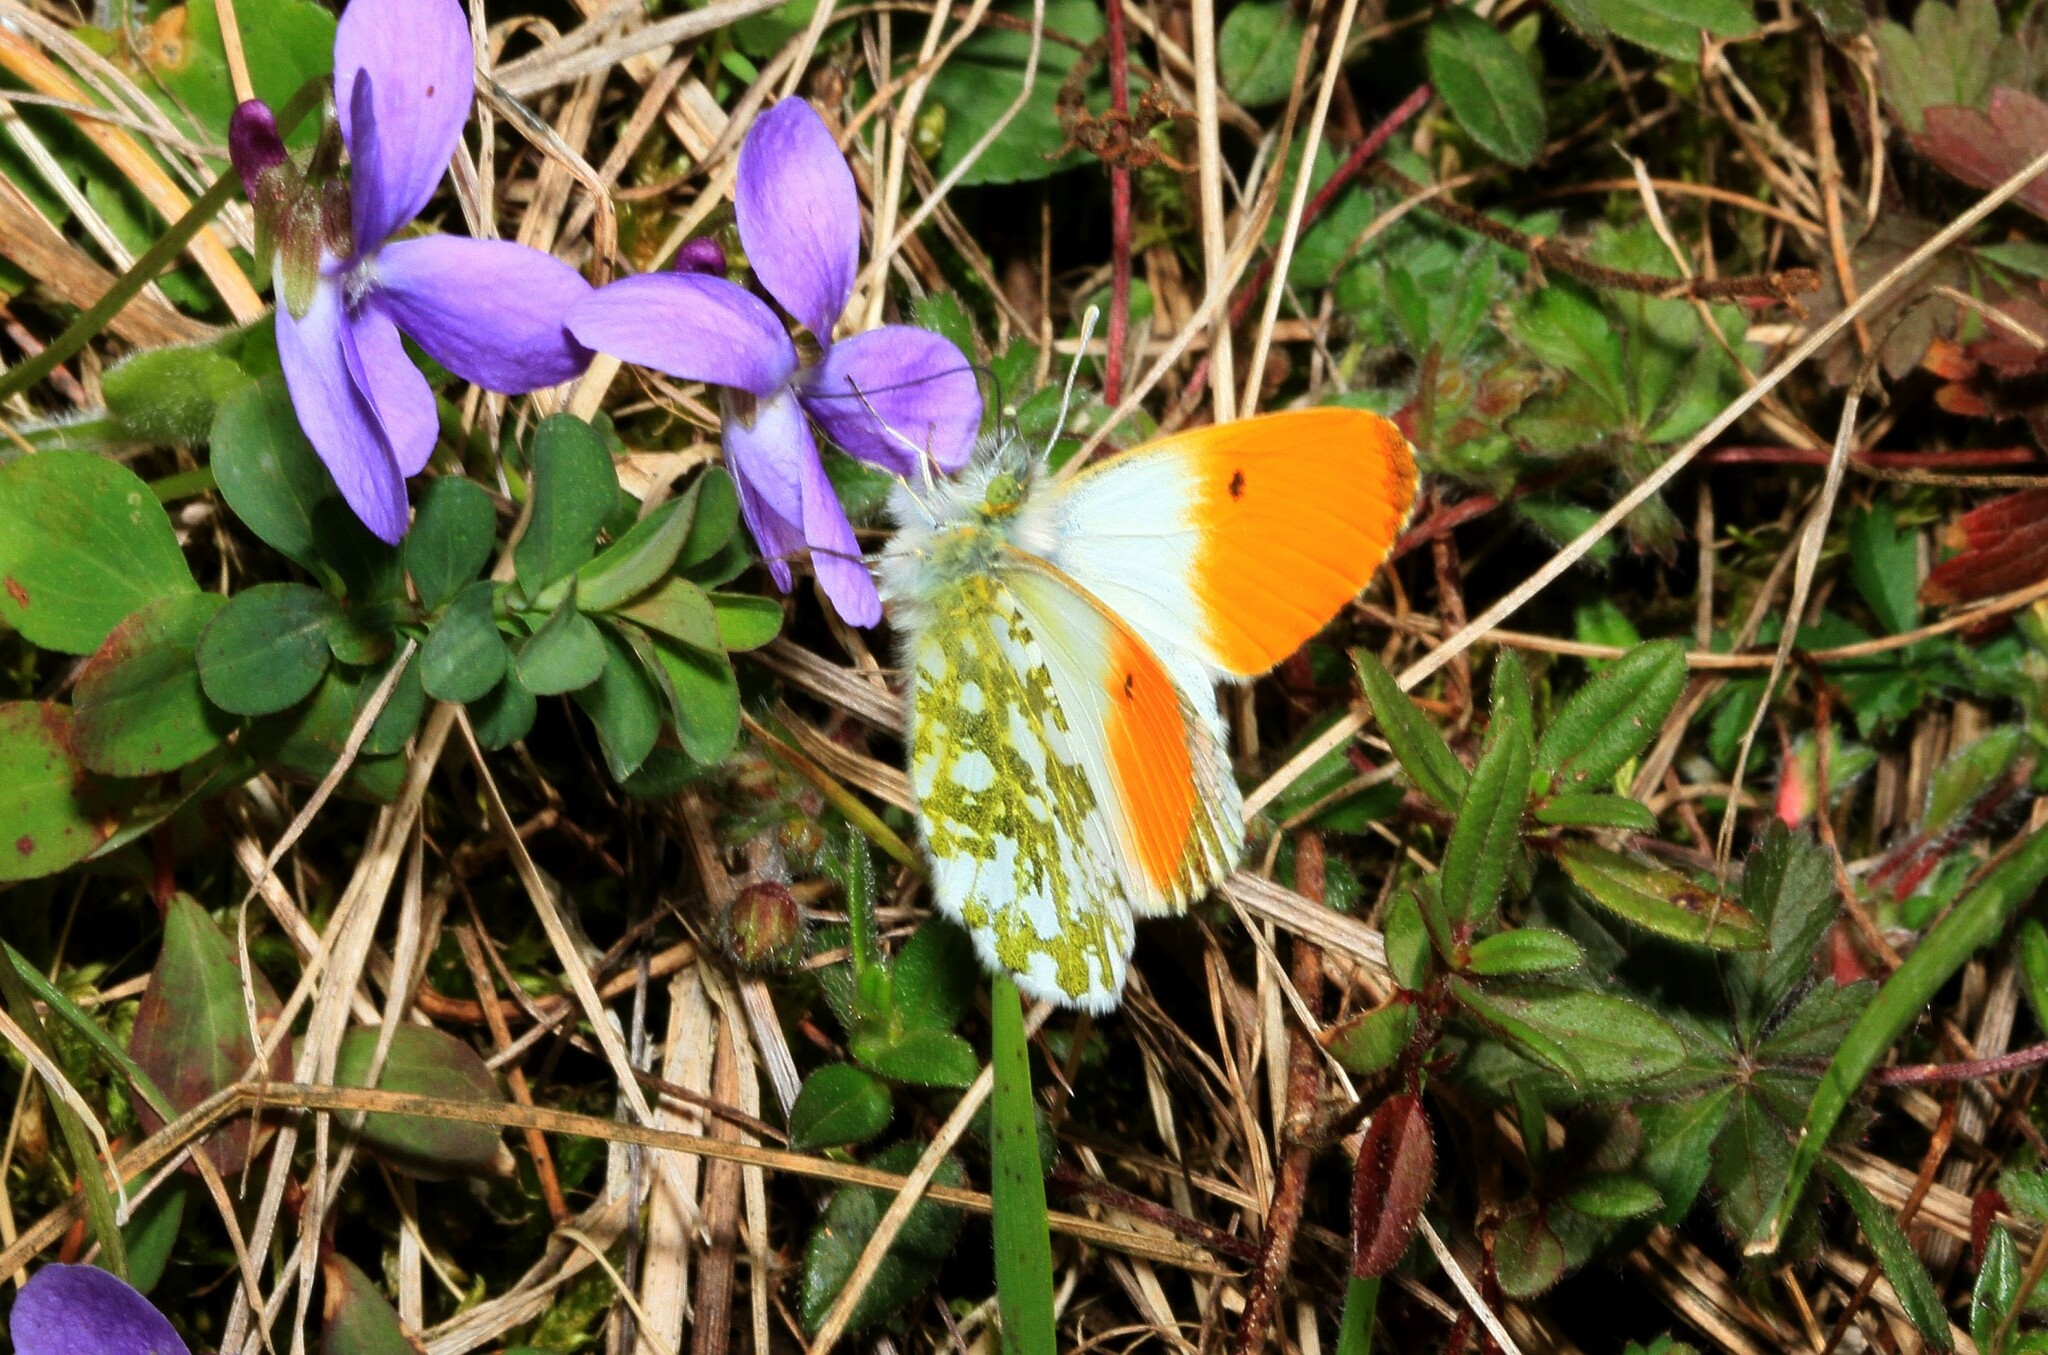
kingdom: Animalia
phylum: Arthropoda
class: Insecta
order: Lepidoptera
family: Pieridae
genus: Anthocharis
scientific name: Anthocharis cardamines
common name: Orange-tip
